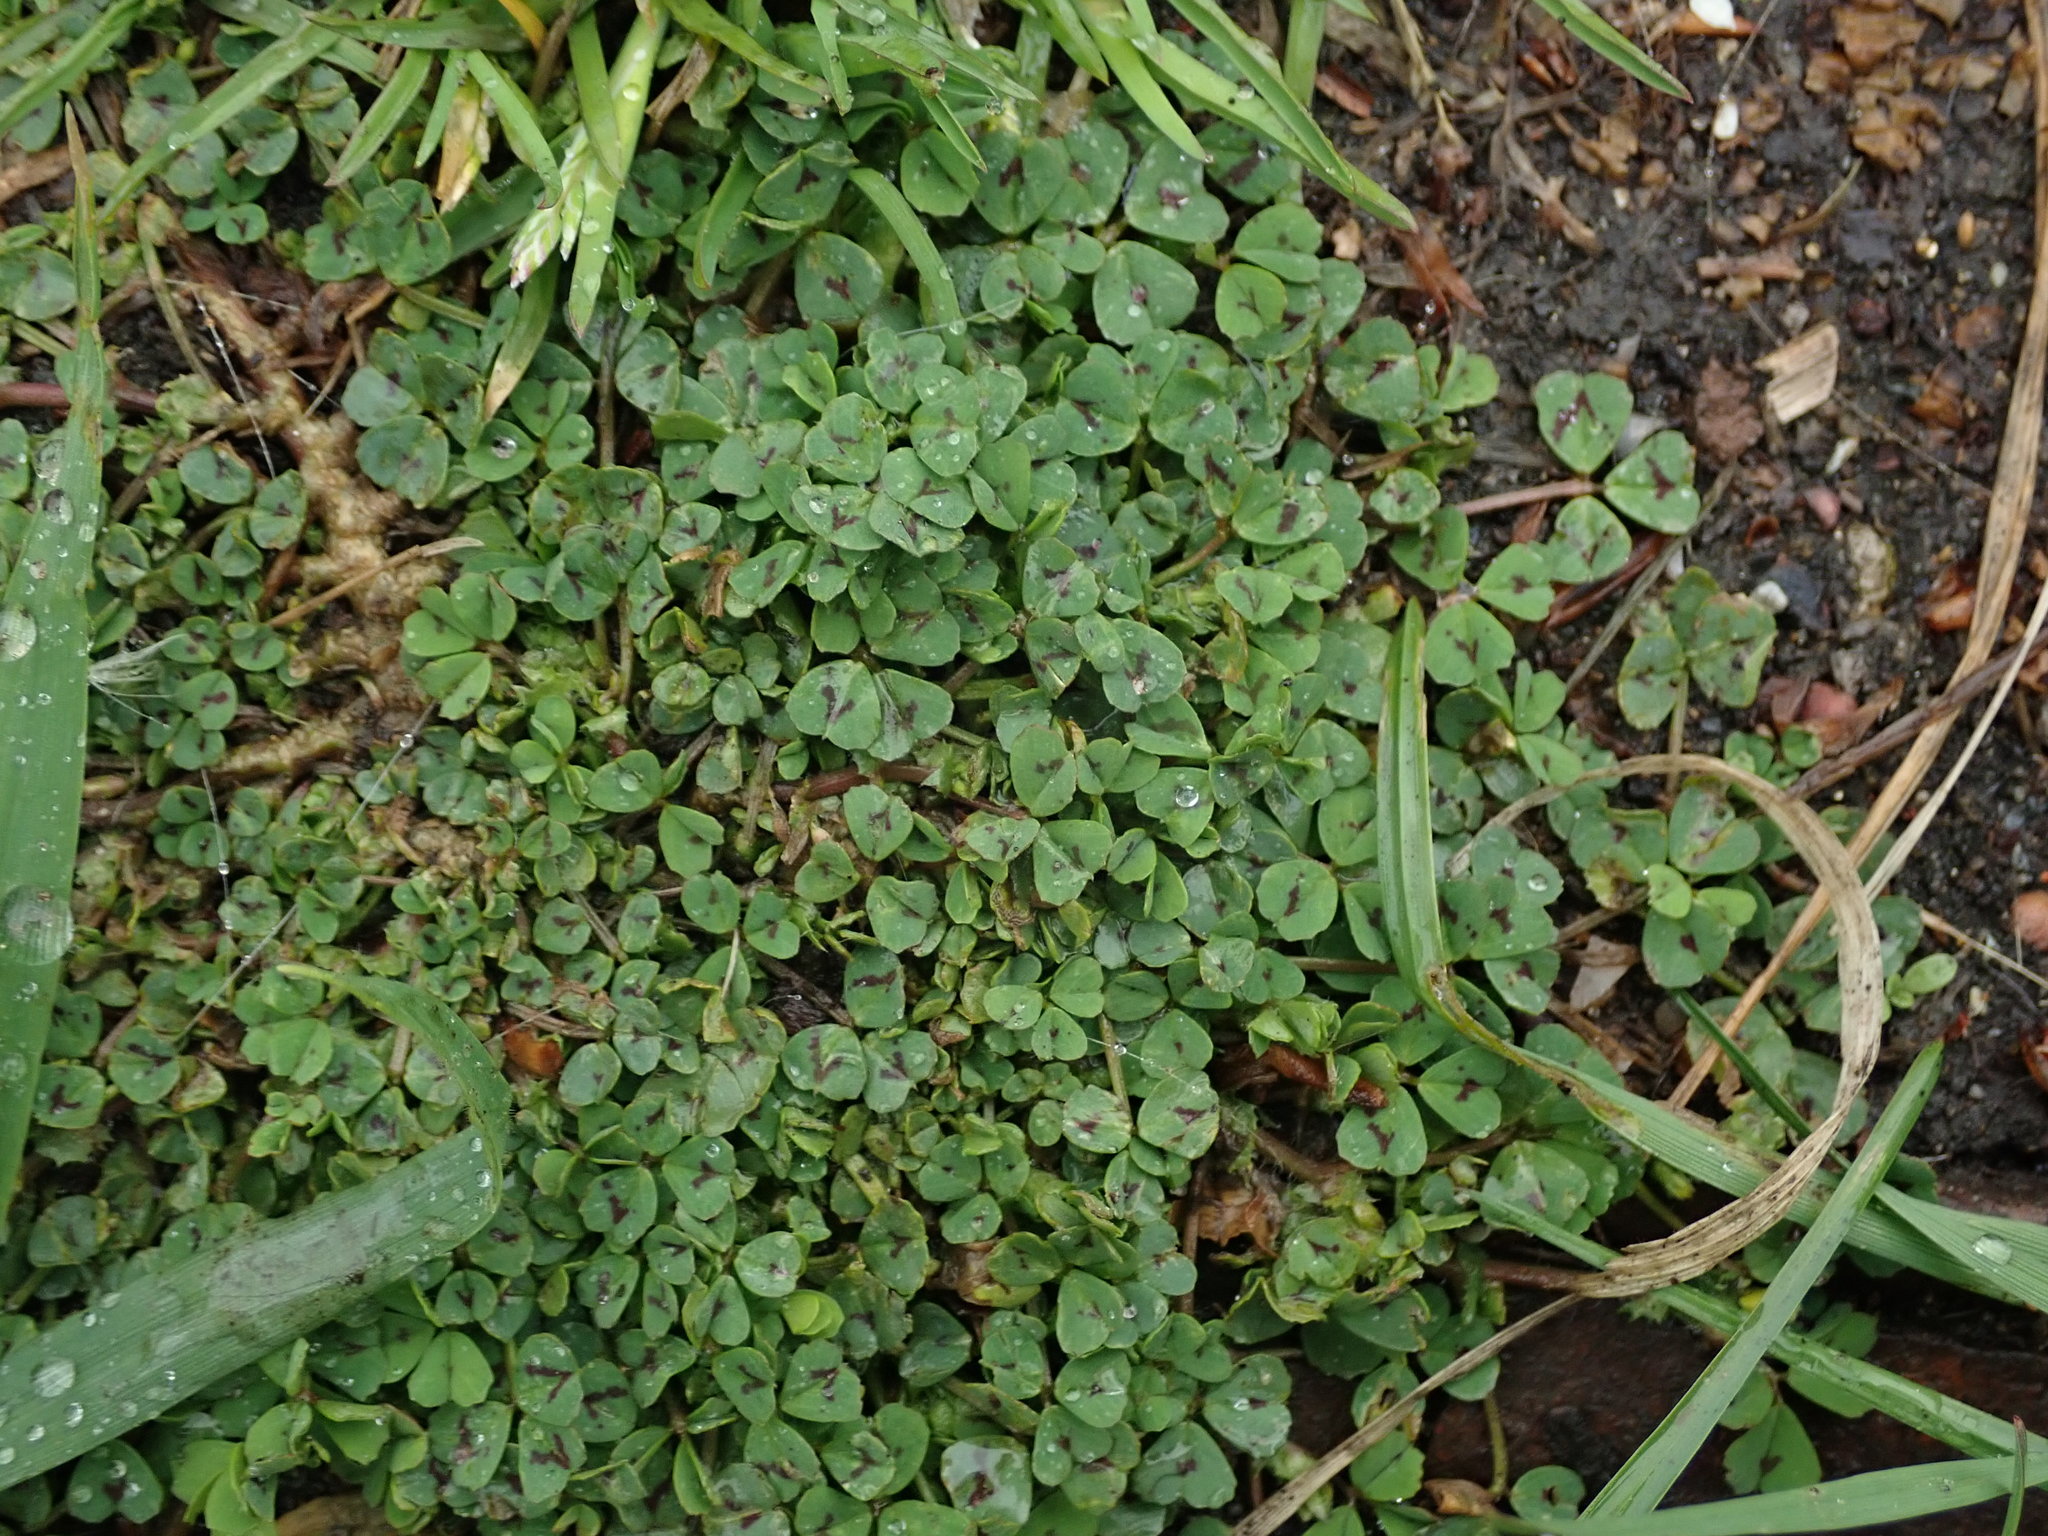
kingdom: Plantae
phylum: Tracheophyta
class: Magnoliopsida
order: Fabales
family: Fabaceae
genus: Medicago
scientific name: Medicago arabica
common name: Spotted medick
